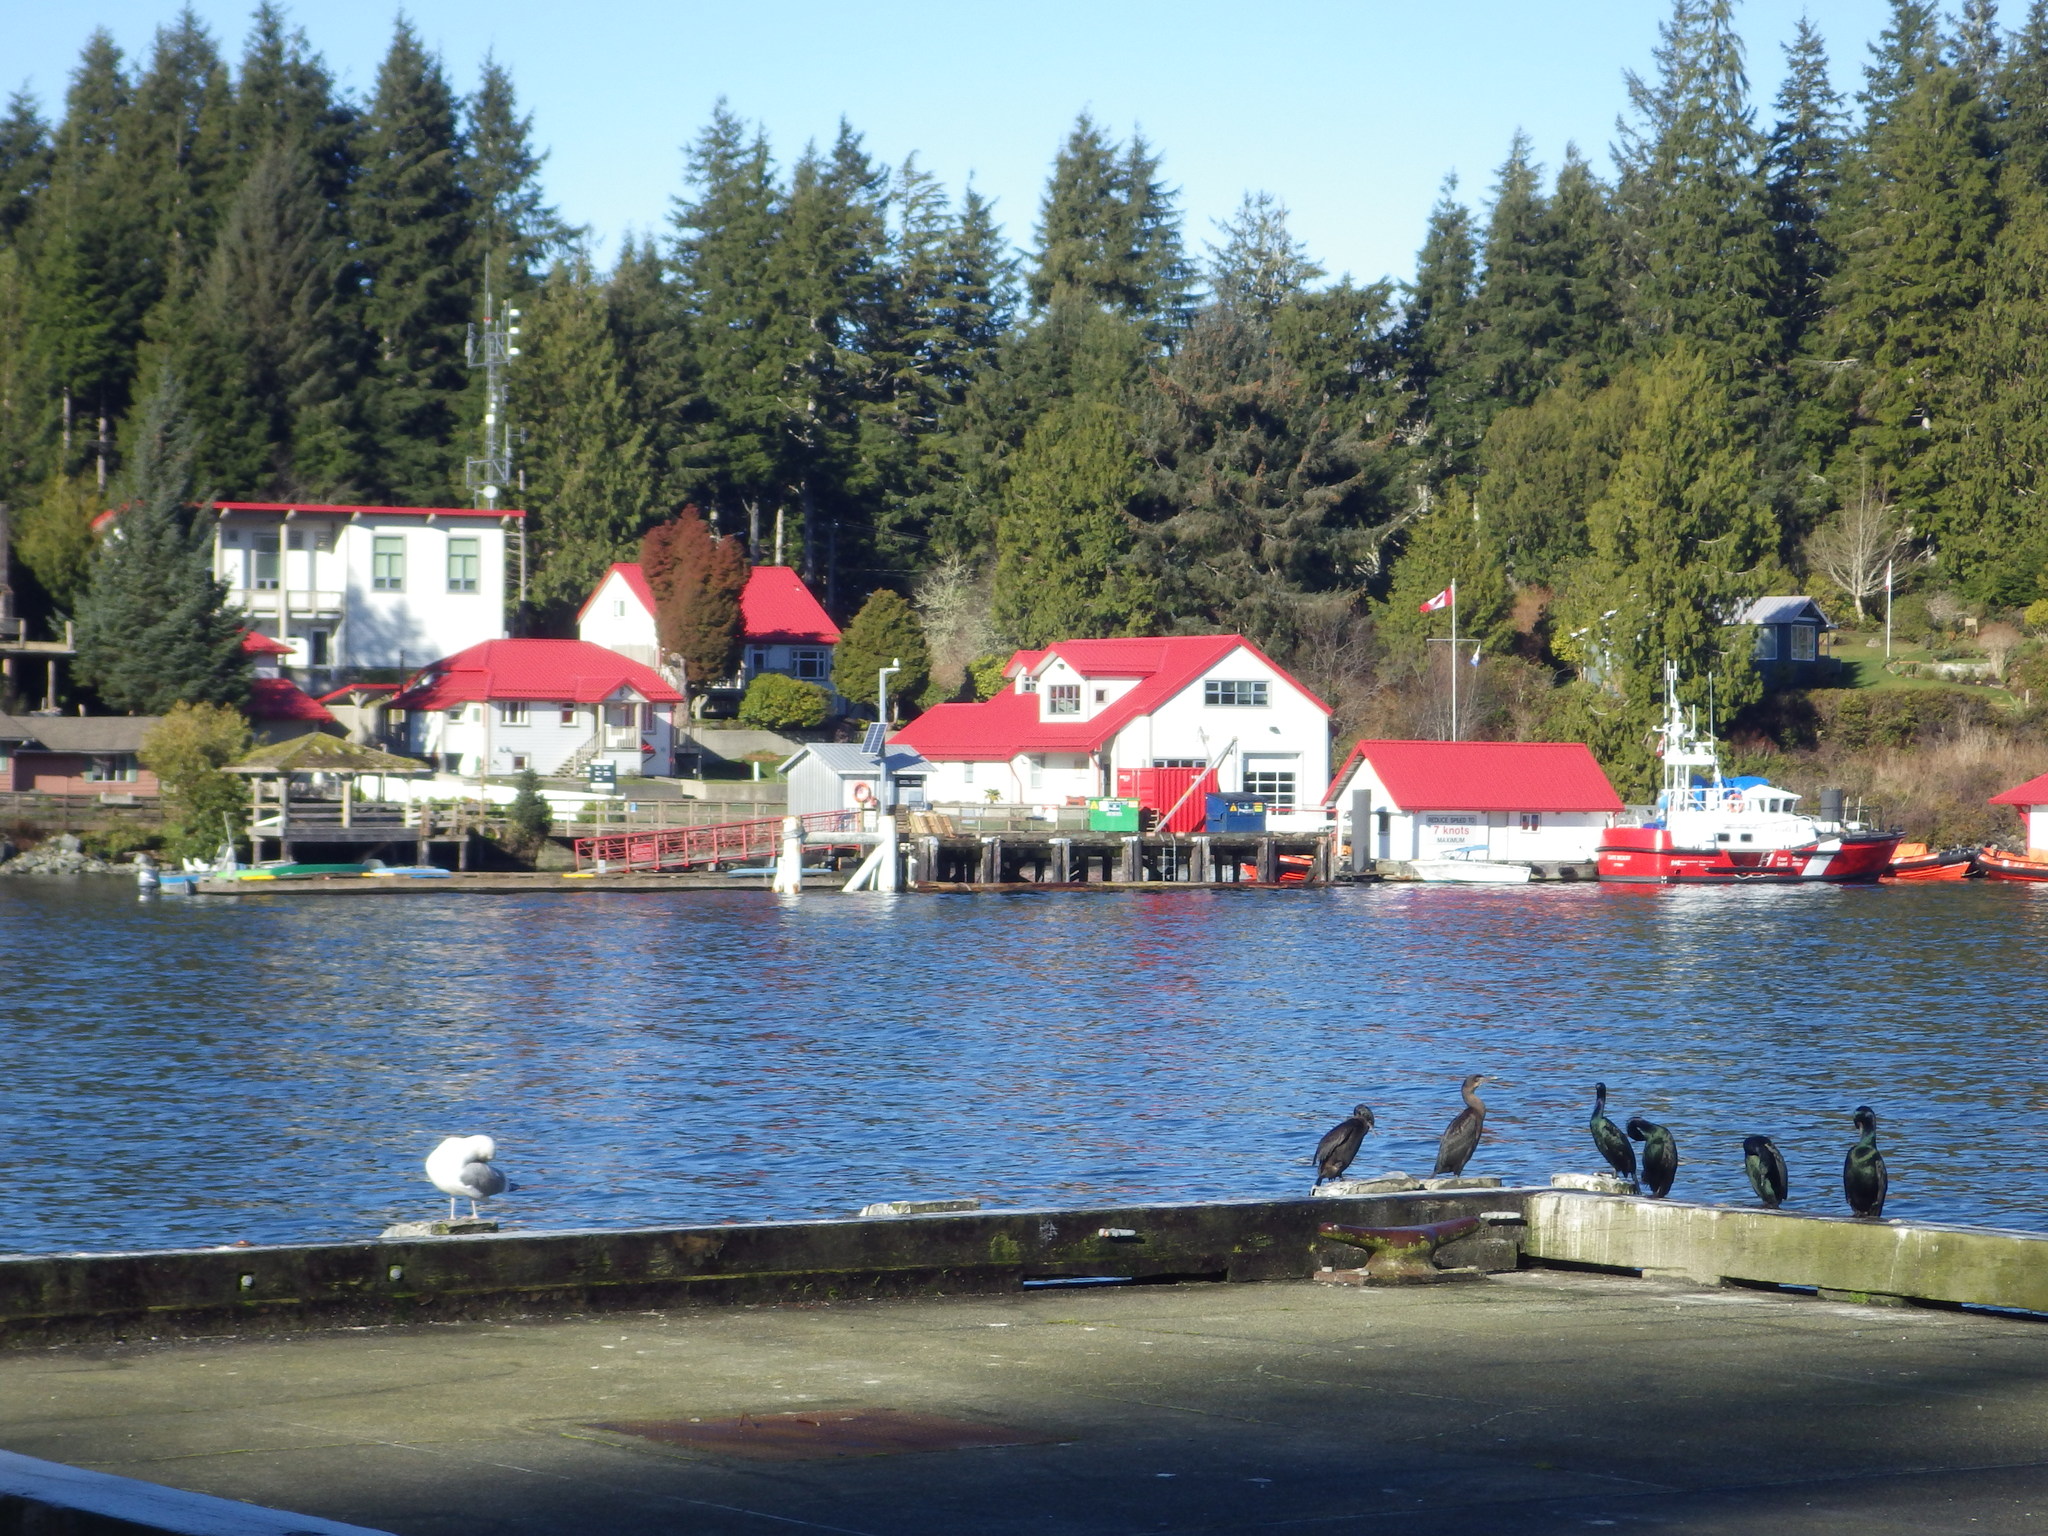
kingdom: Animalia
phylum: Chordata
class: Aves
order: Suliformes
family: Phalacrocoracidae
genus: Phalacrocorax
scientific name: Phalacrocorax pelagicus
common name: Pelagic cormorant
